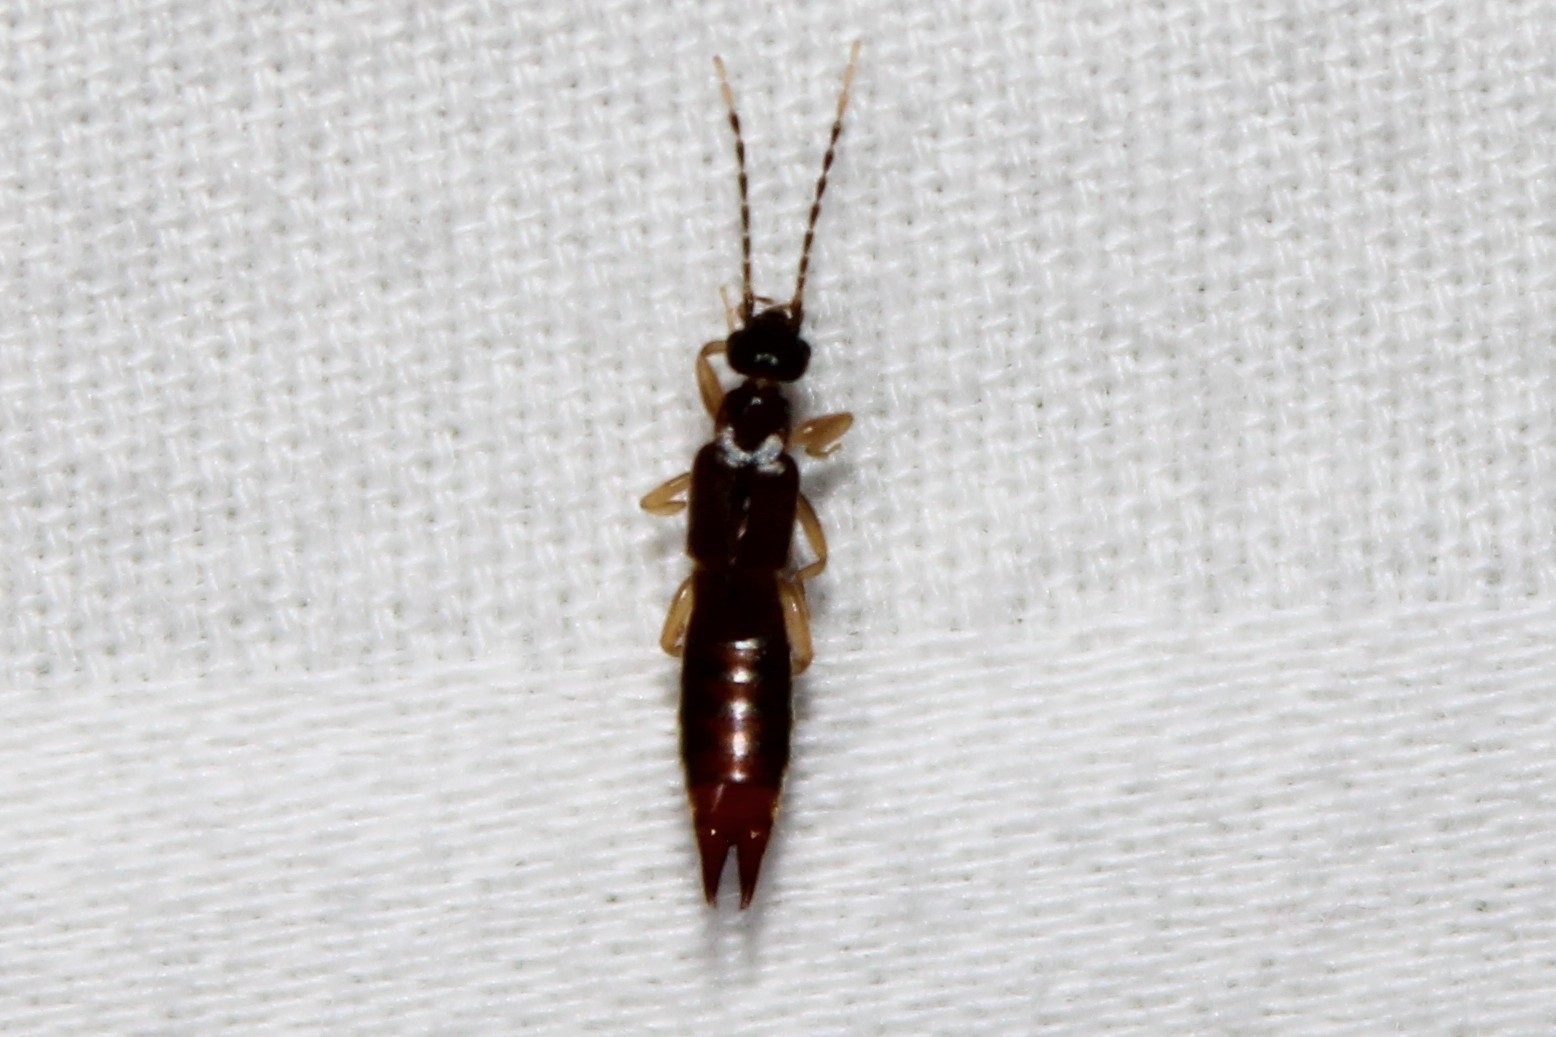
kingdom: Animalia
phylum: Arthropoda
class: Insecta
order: Dermaptera
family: Spongiphoridae
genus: Labia
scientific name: Labia minor
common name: Lesser earwig
